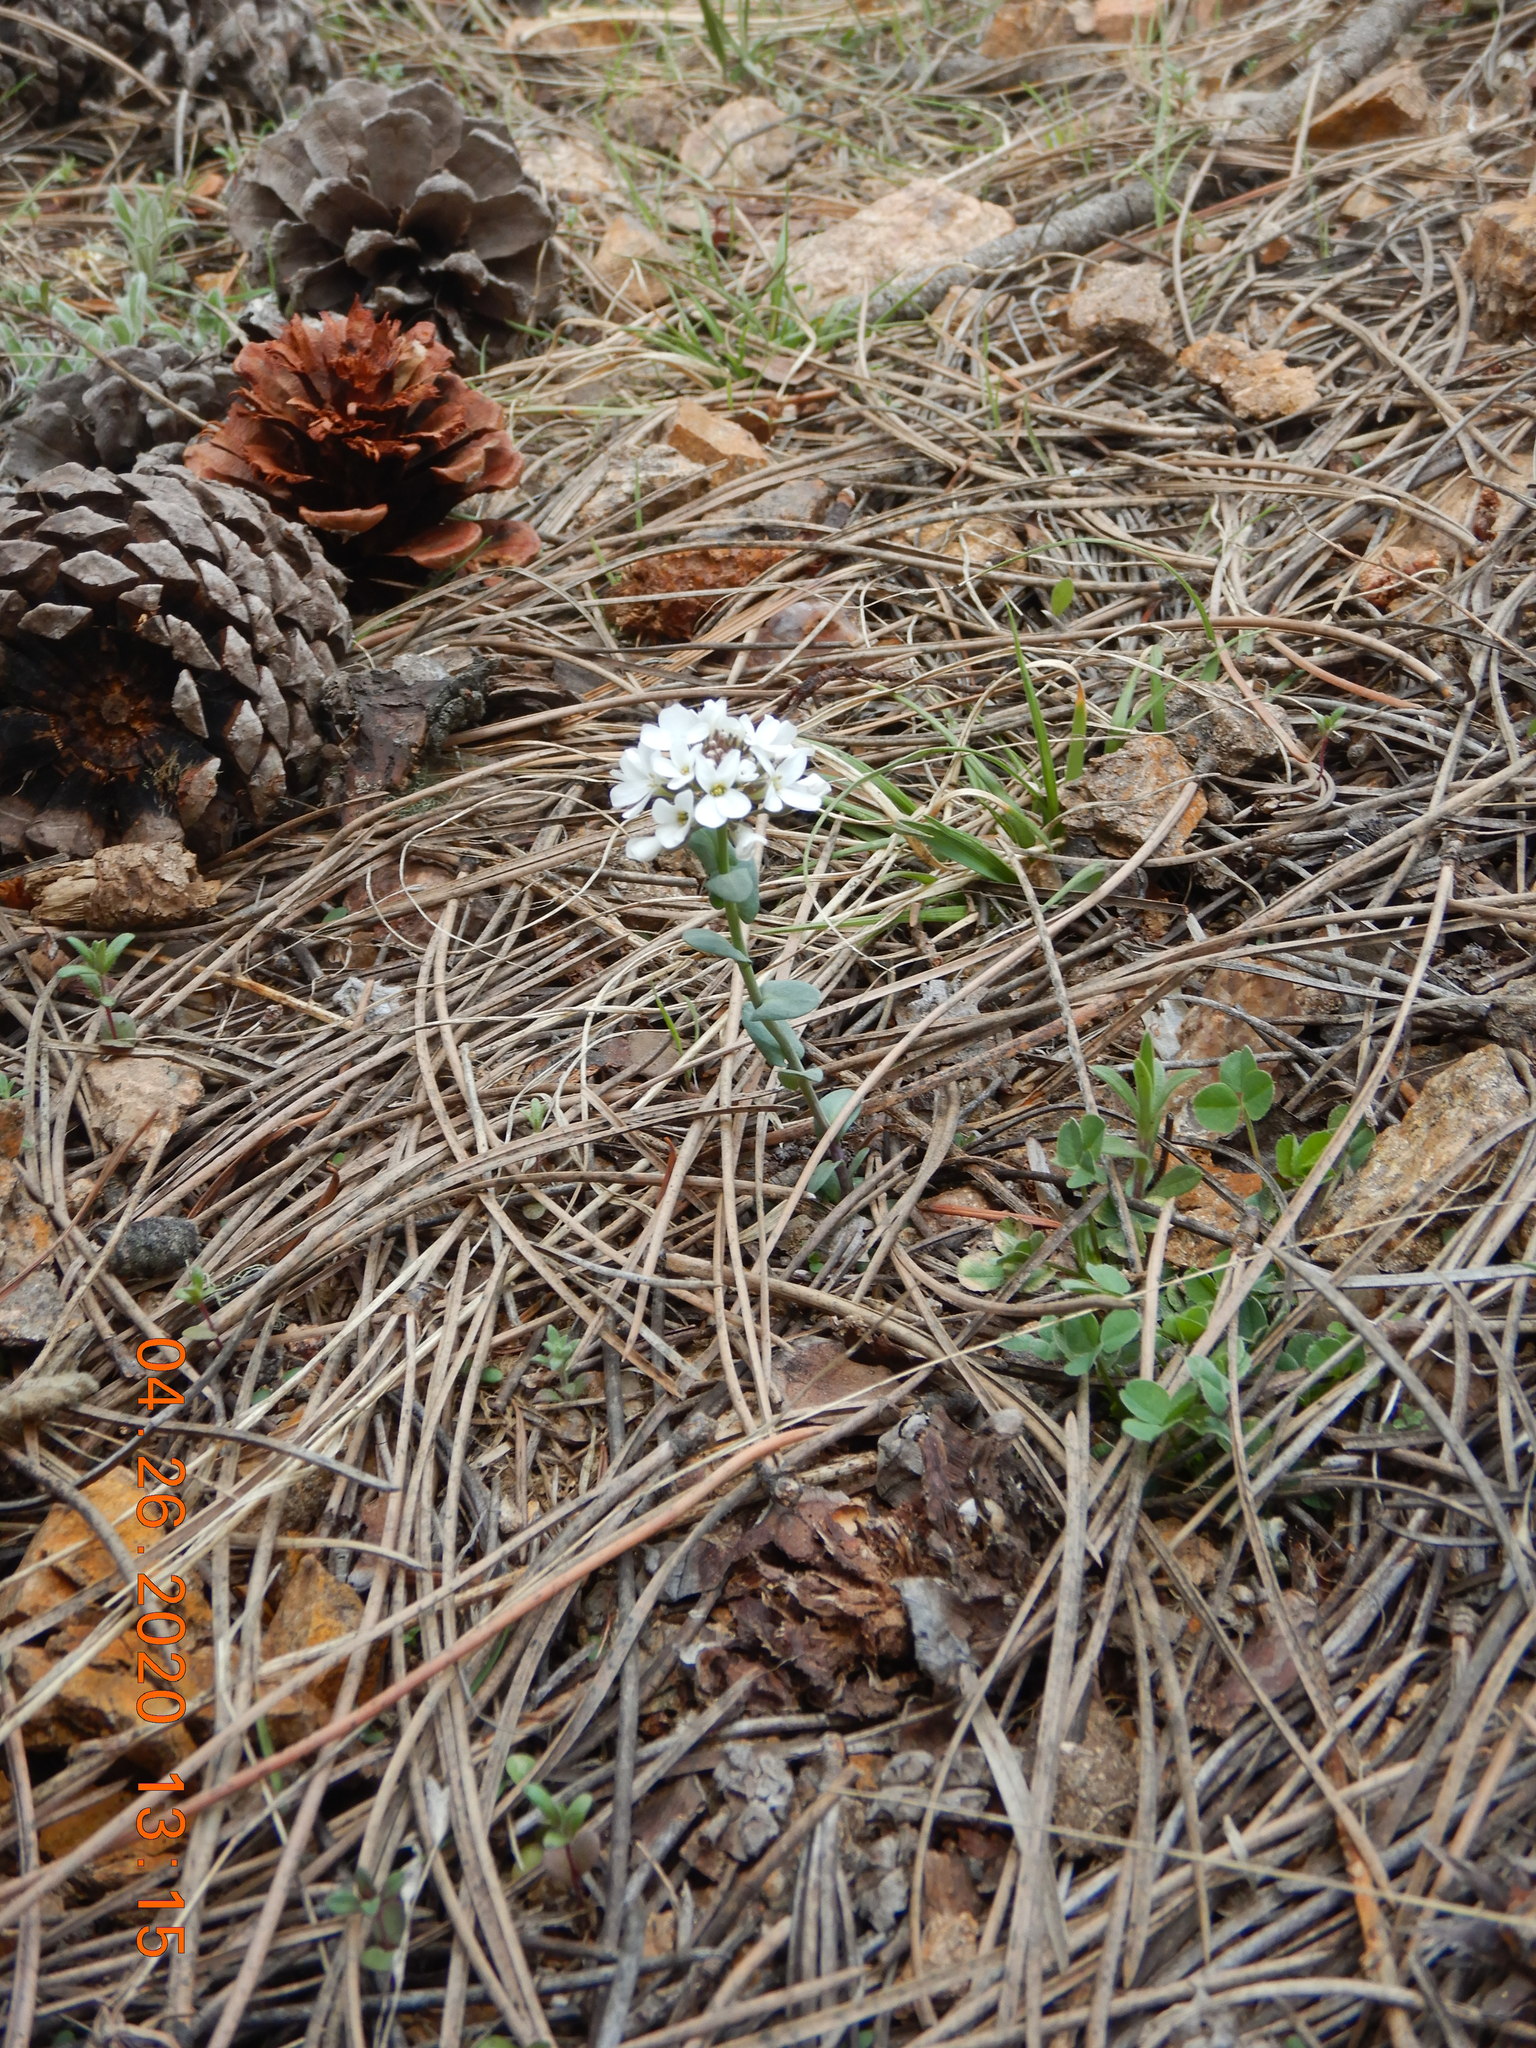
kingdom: Plantae
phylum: Tracheophyta
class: Magnoliopsida
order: Brassicales
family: Brassicaceae
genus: Noccaea
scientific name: Noccaea fendleri
